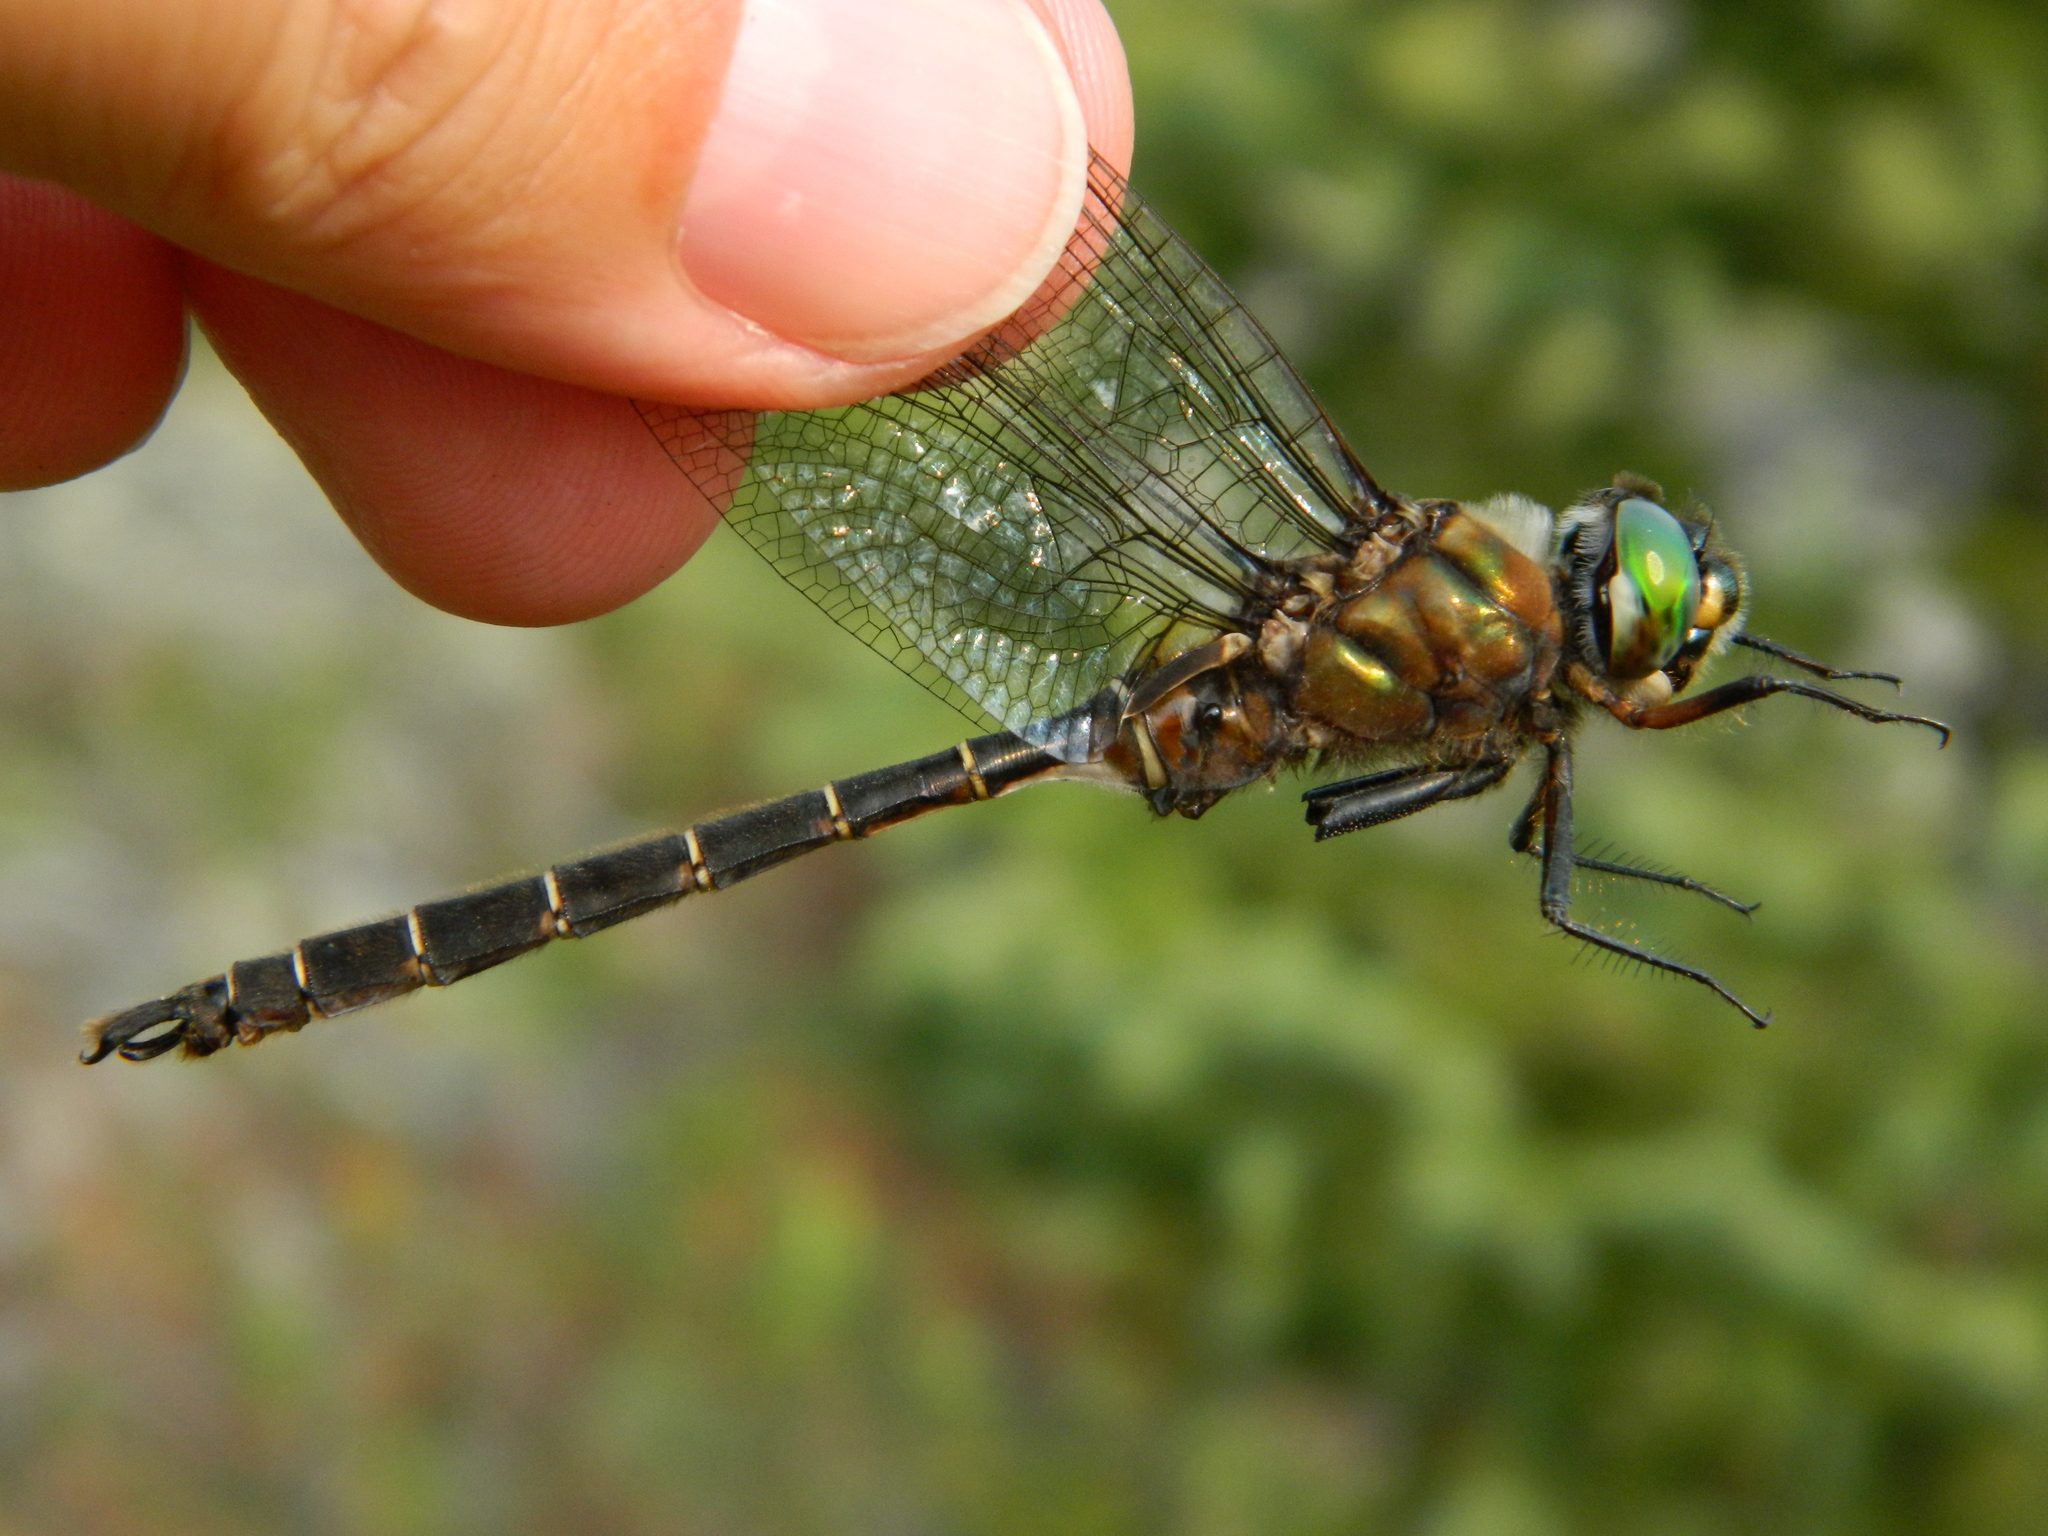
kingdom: Animalia
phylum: Arthropoda
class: Insecta
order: Odonata
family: Corduliidae
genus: Somatochlora
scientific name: Somatochlora cingulata
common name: Lake emerald
